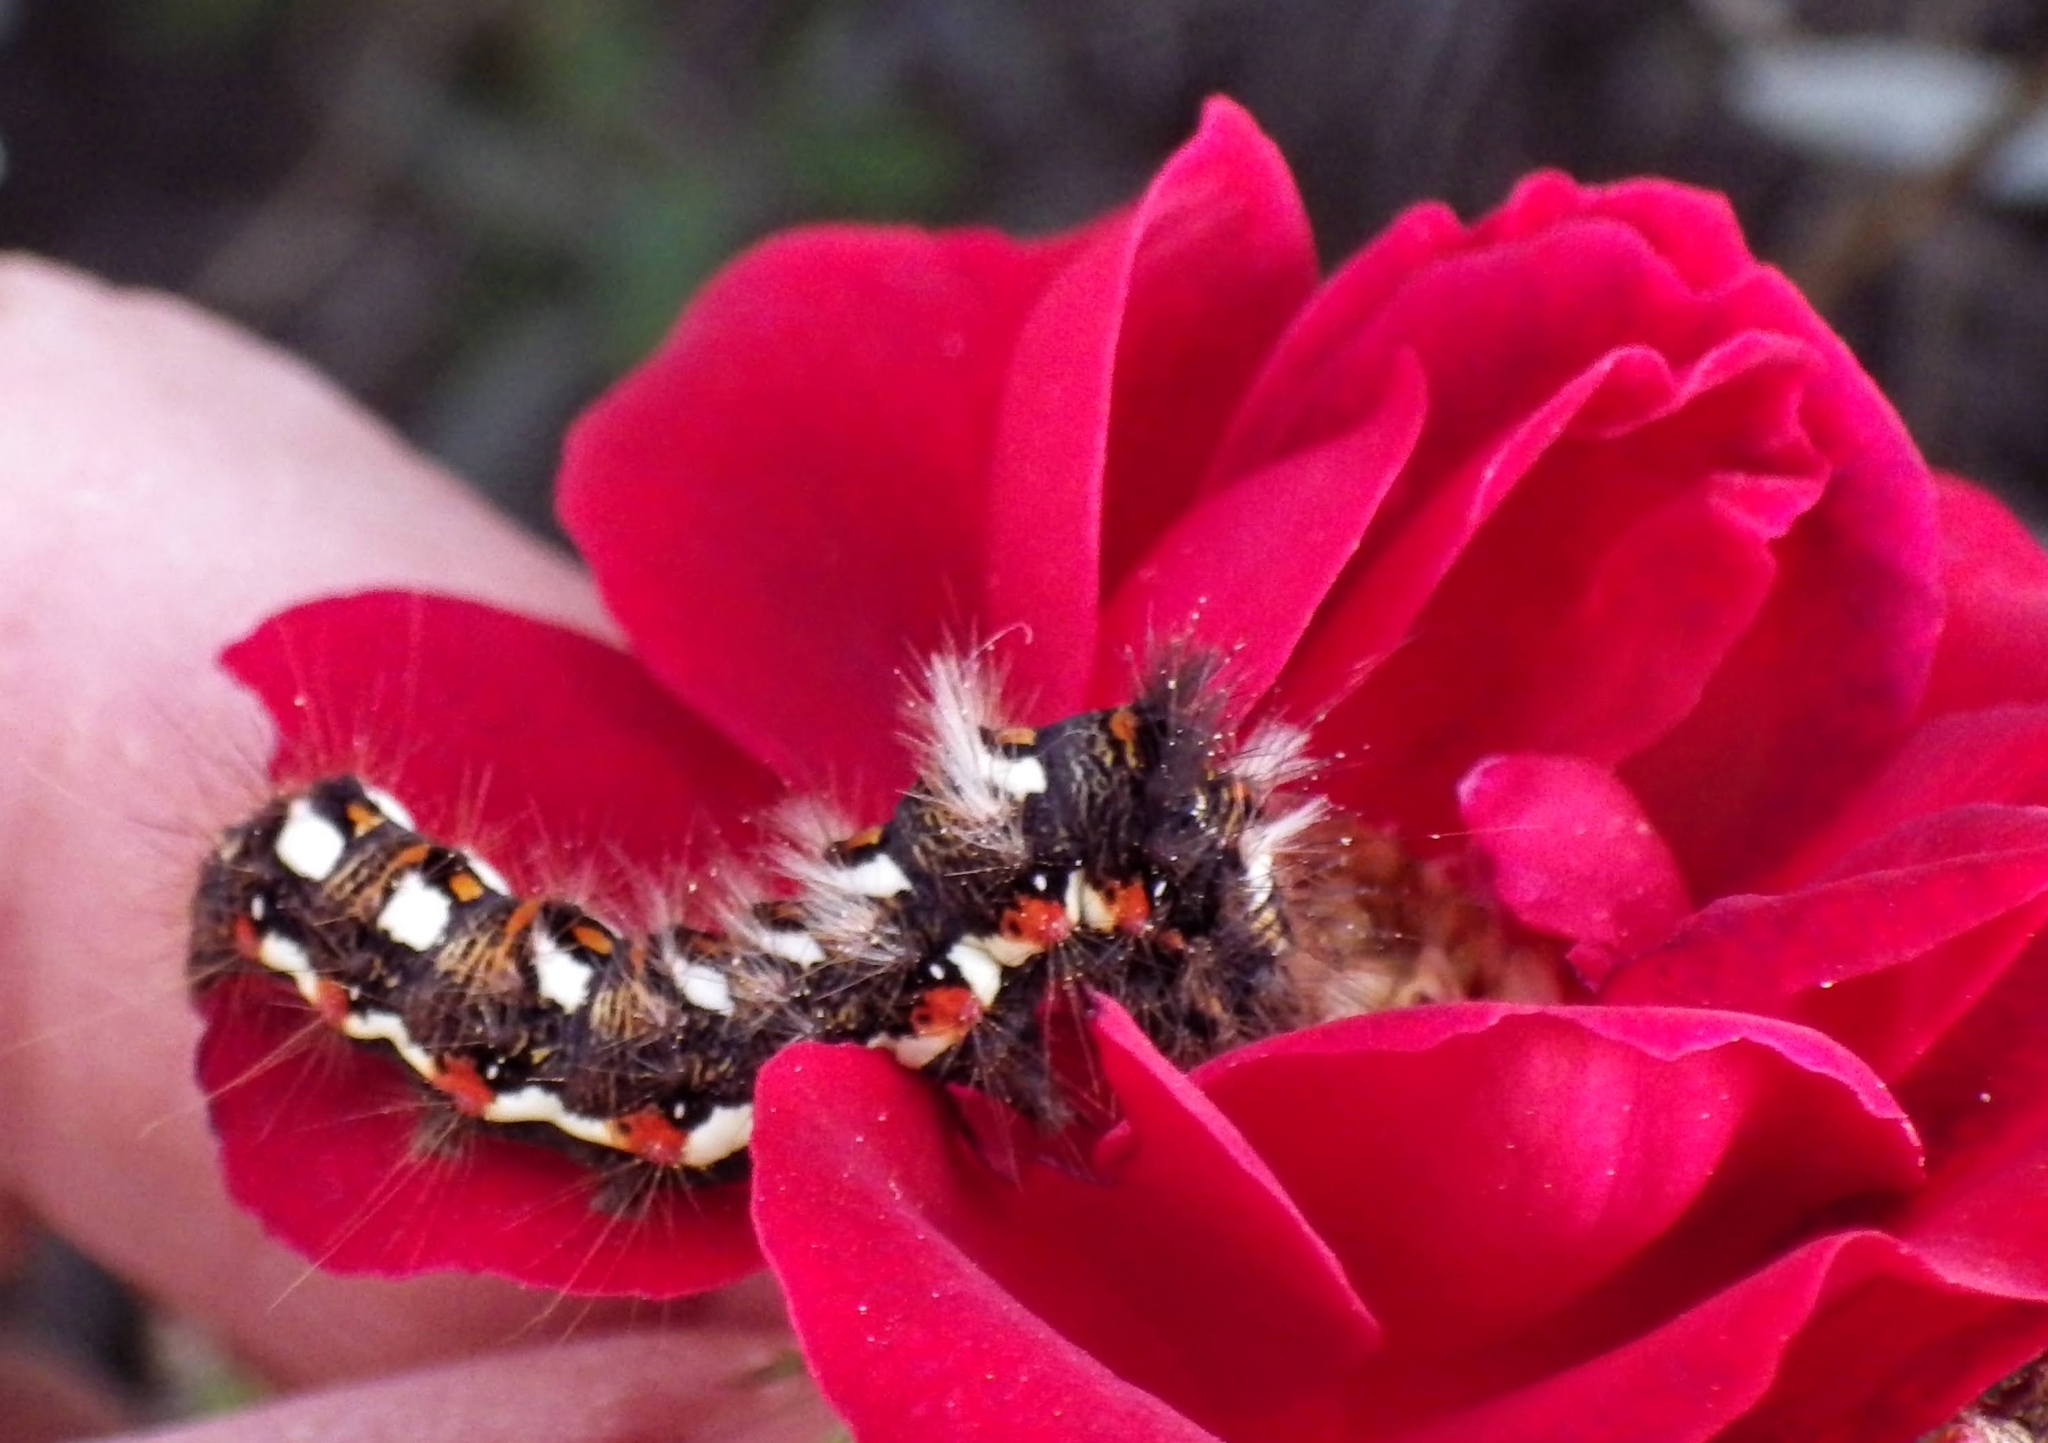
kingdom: Animalia
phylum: Arthropoda
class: Insecta
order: Lepidoptera
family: Noctuidae
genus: Acronicta
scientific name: Acronicta rumicis
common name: Knot grass
